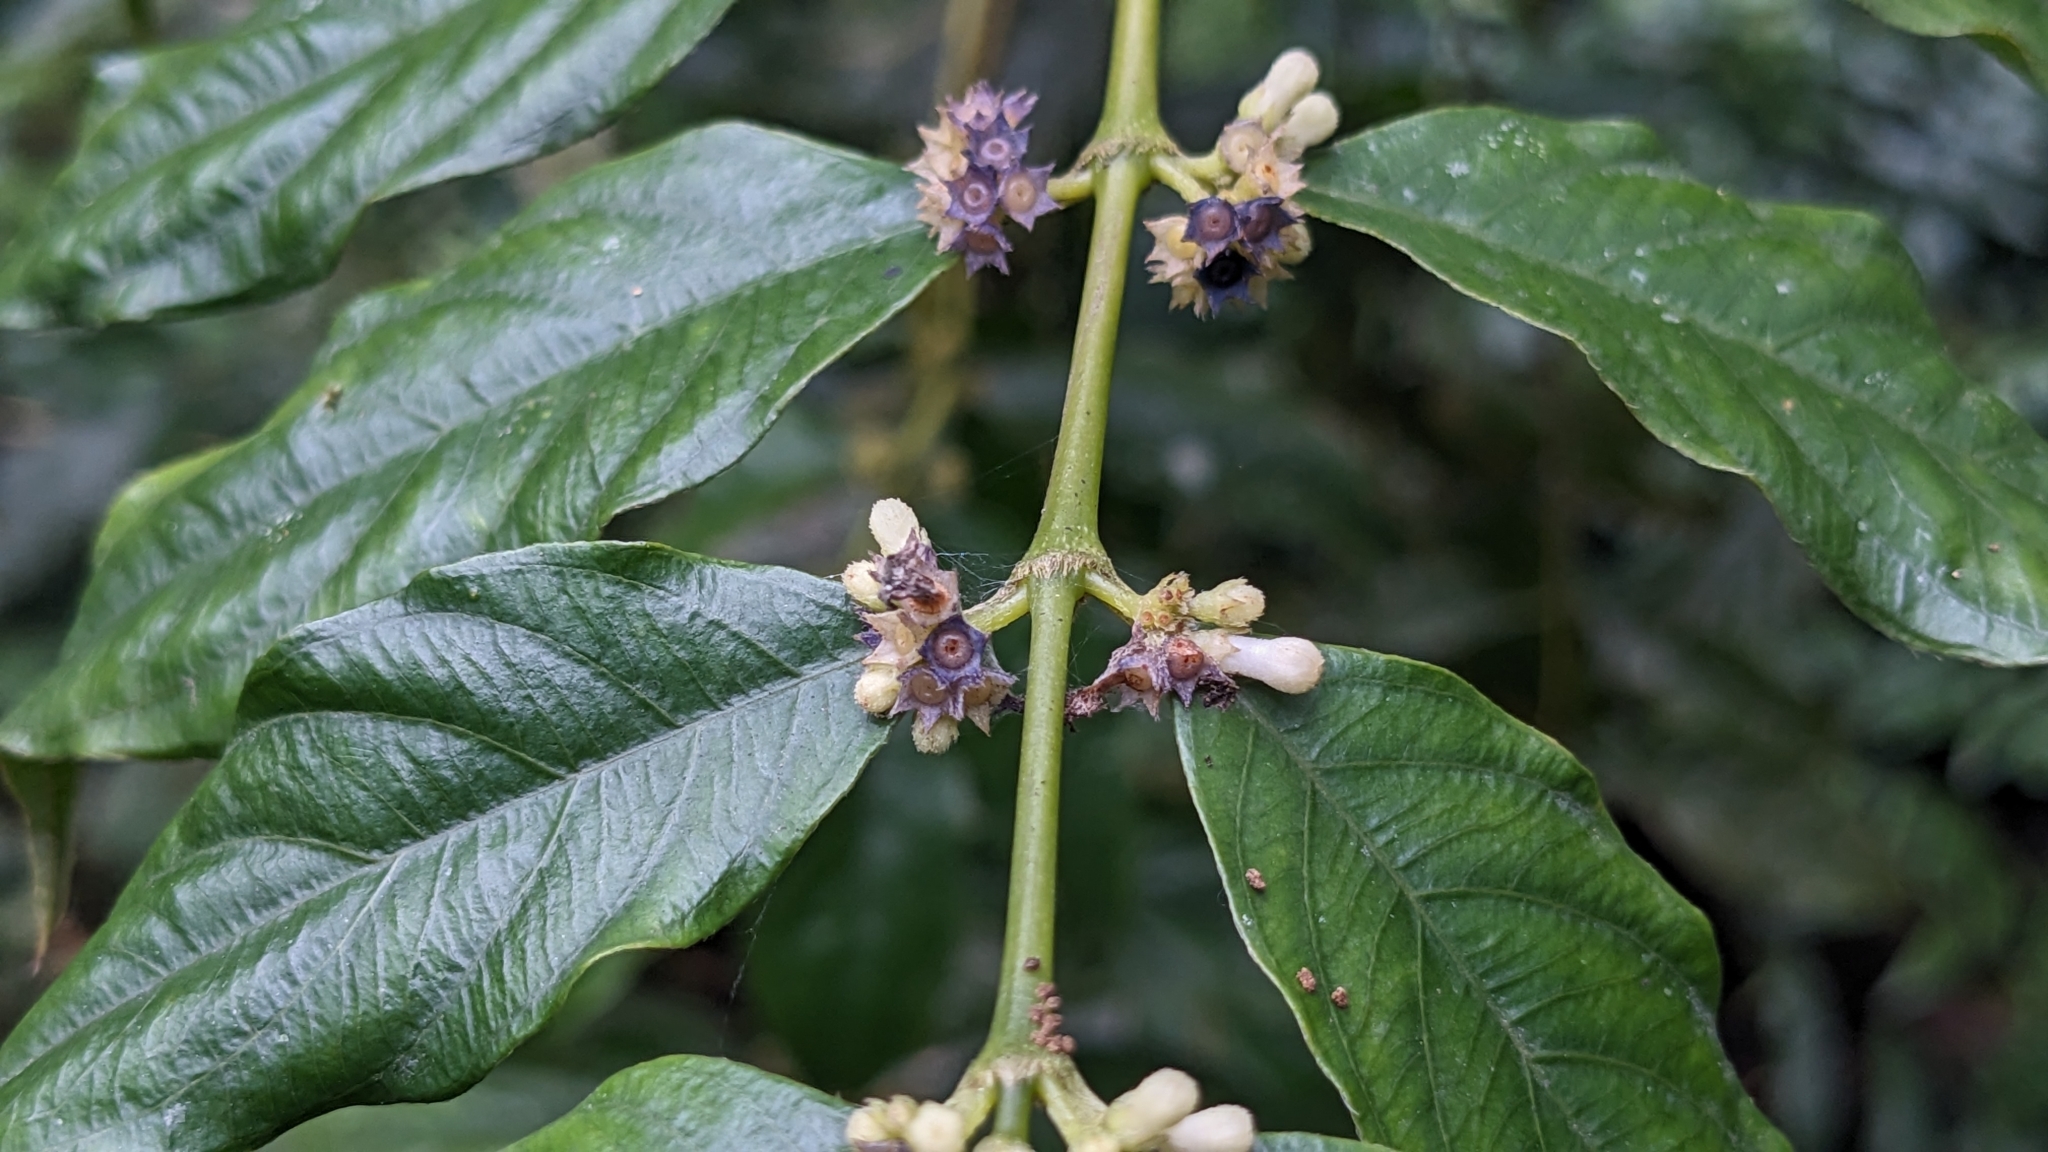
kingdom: Plantae
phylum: Tracheophyta
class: Magnoliopsida
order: Gentianales
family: Rubiaceae
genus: Lasianthus
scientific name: Lasianthus micranthus
